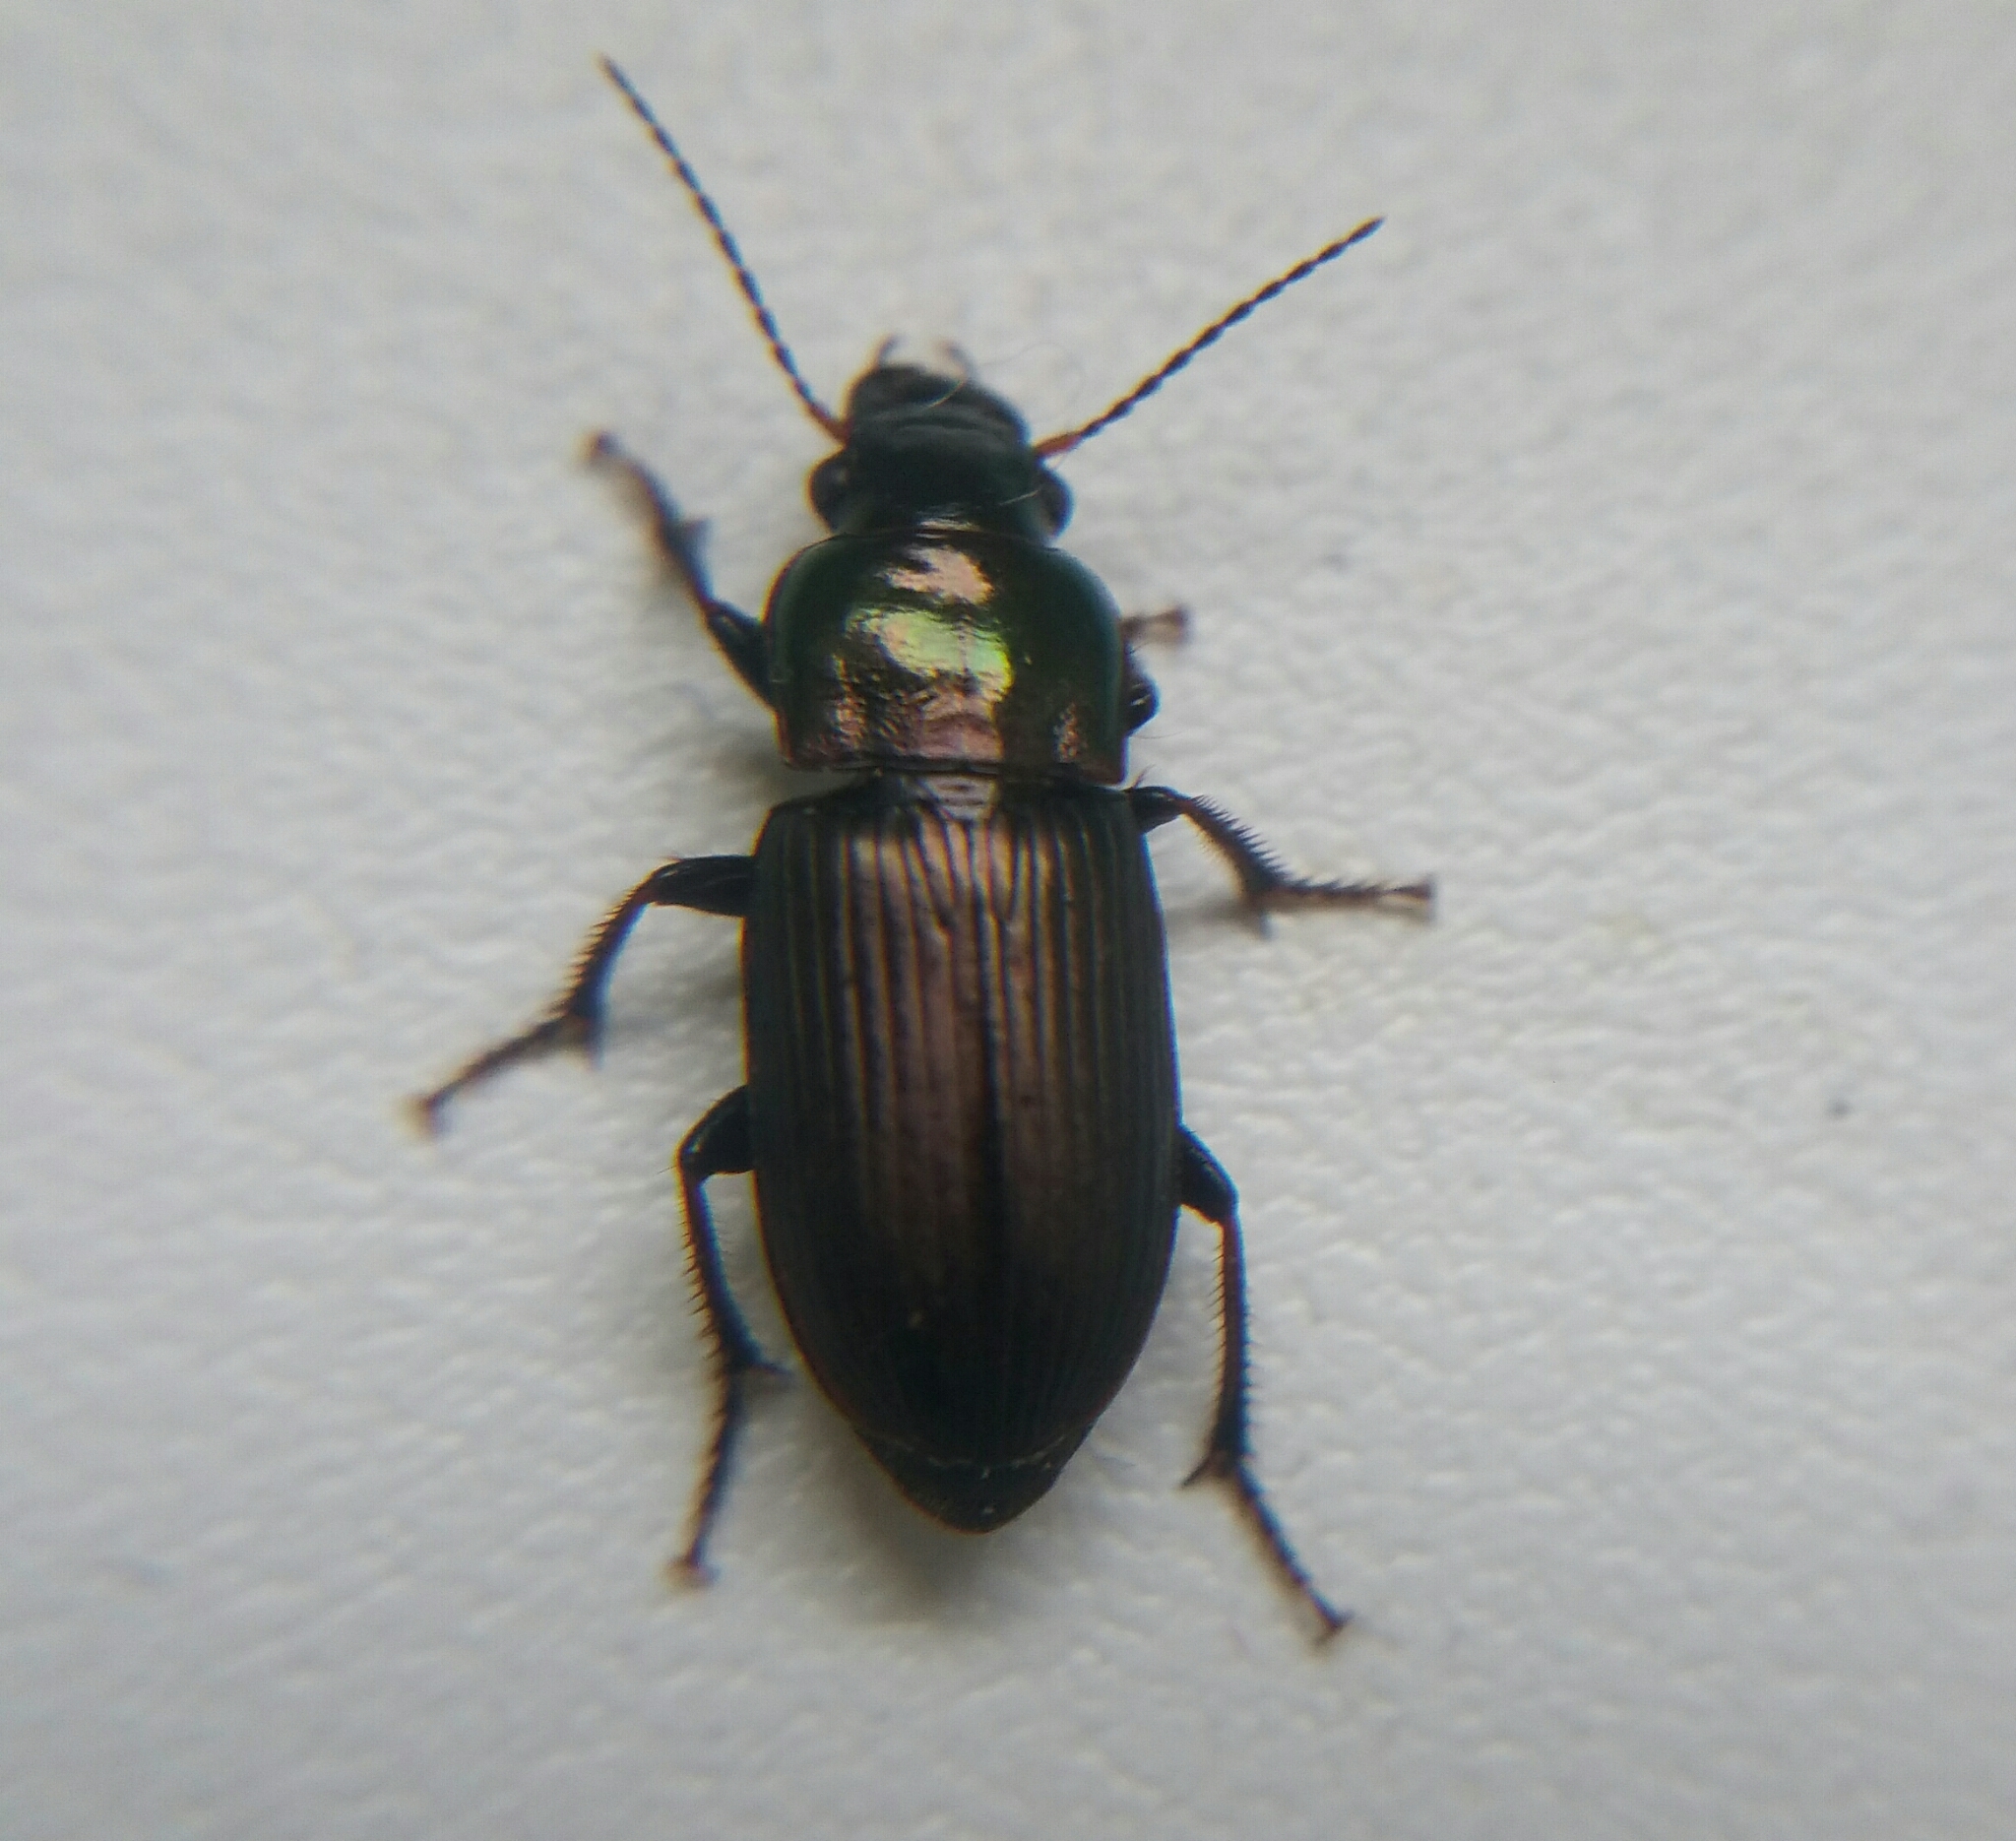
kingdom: Animalia
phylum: Arthropoda
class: Insecta
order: Coleoptera
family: Carabidae
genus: Harpalus
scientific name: Harpalus distinguendus
